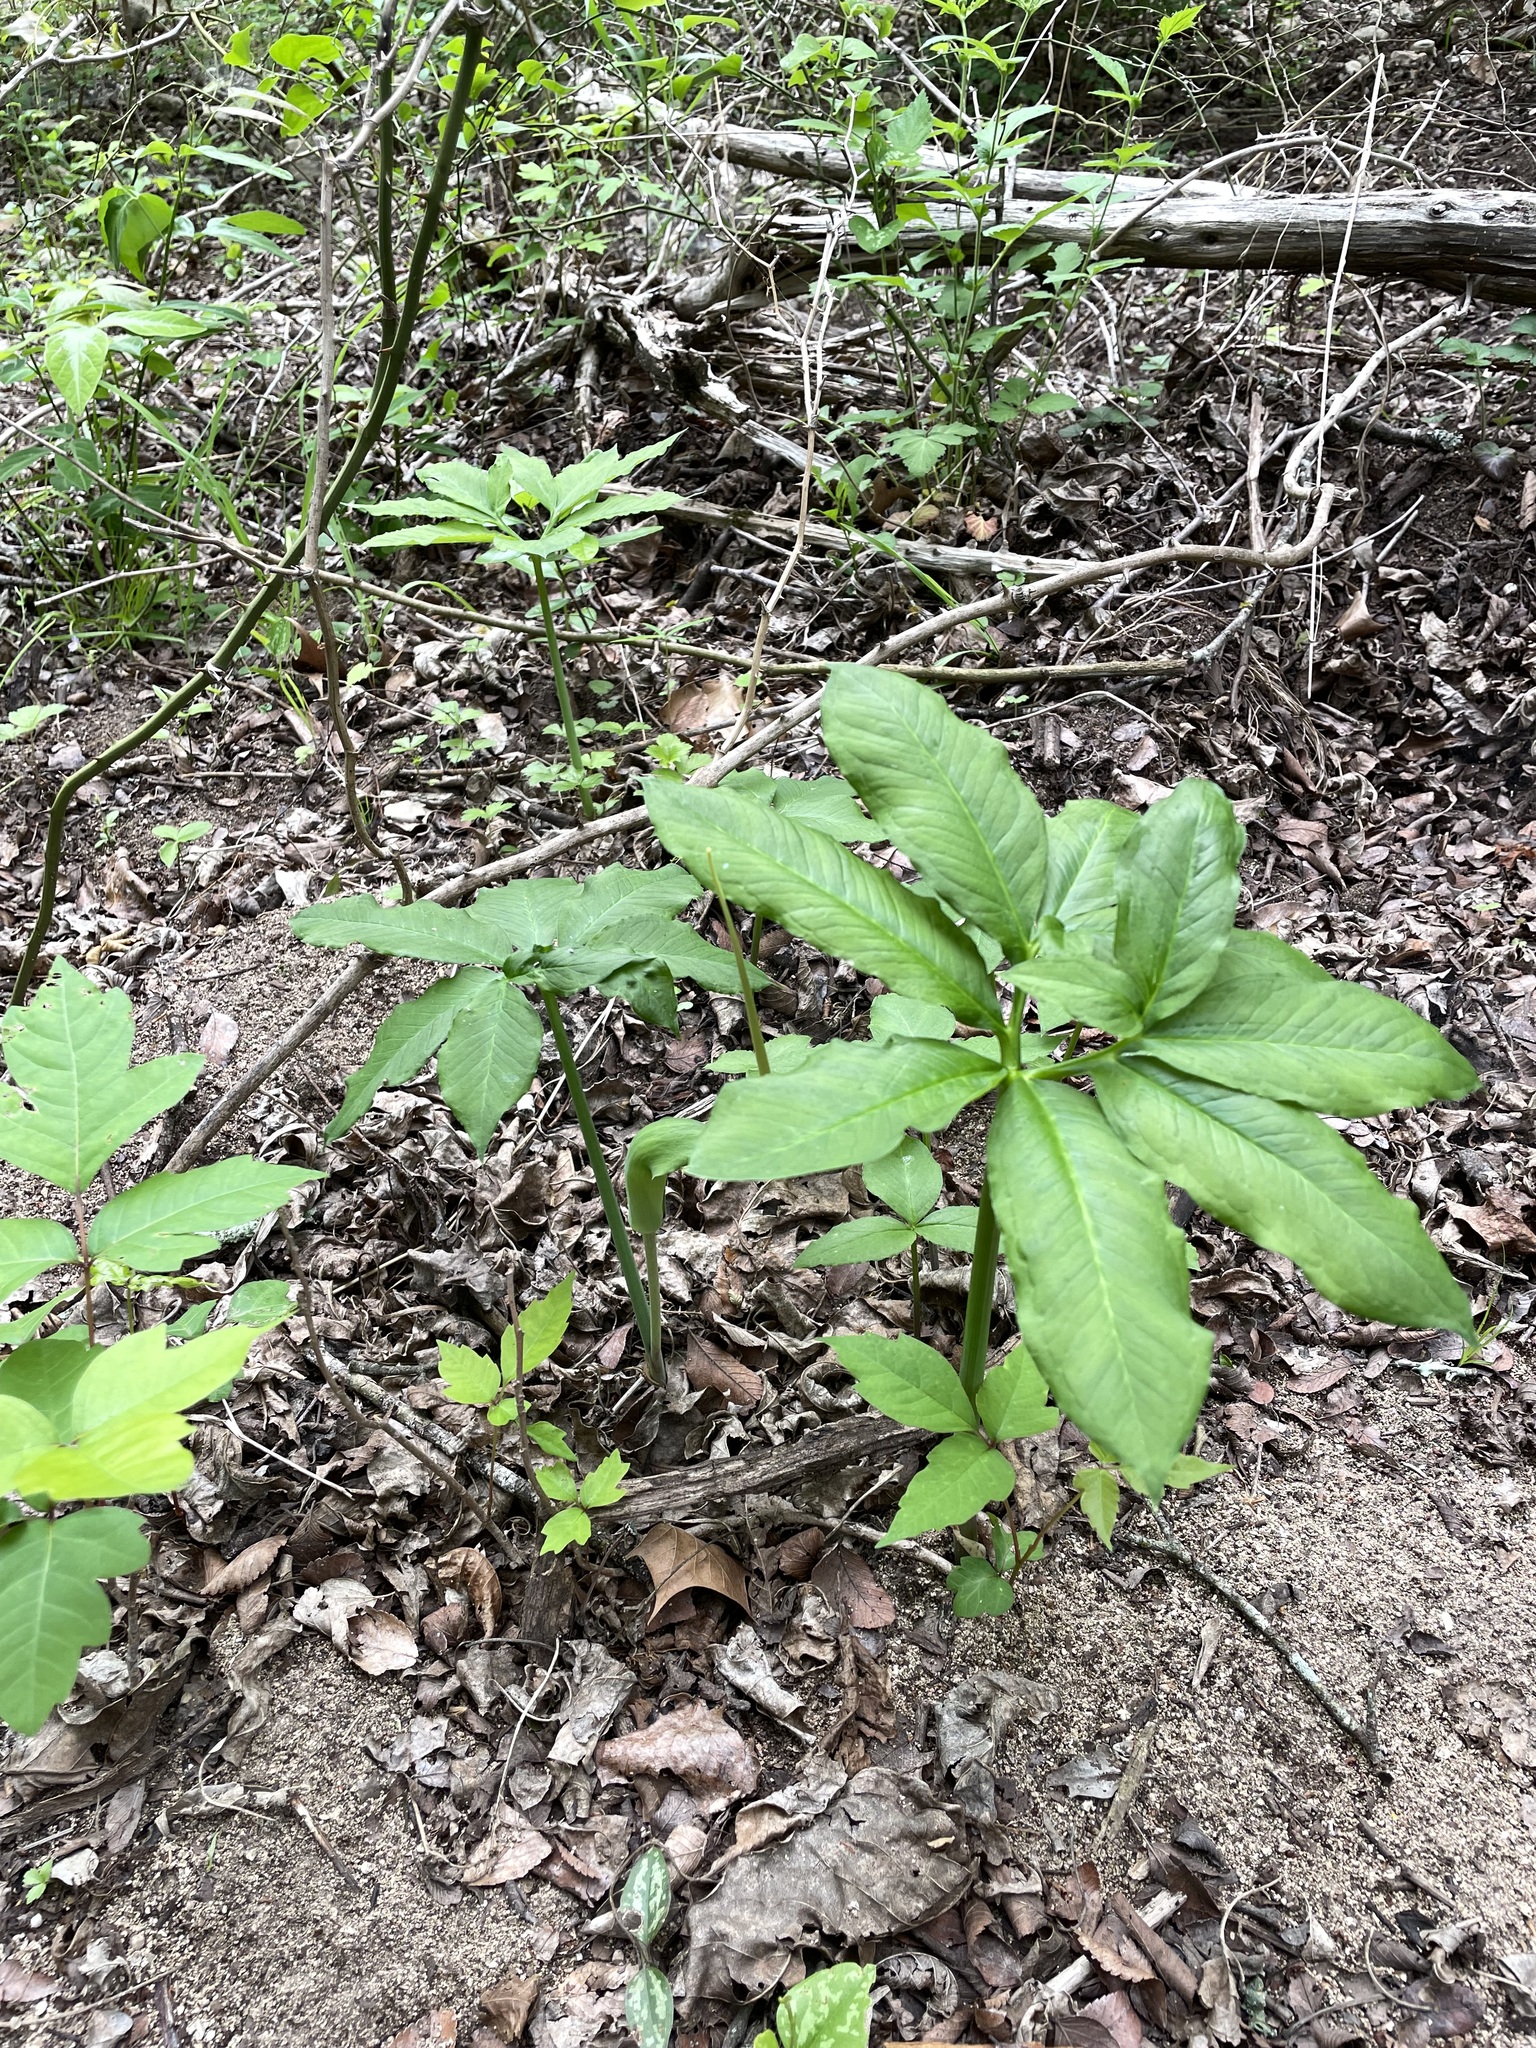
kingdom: Plantae
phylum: Tracheophyta
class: Liliopsida
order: Alismatales
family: Araceae
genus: Arisaema
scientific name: Arisaema dracontium
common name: Dragon-arum
